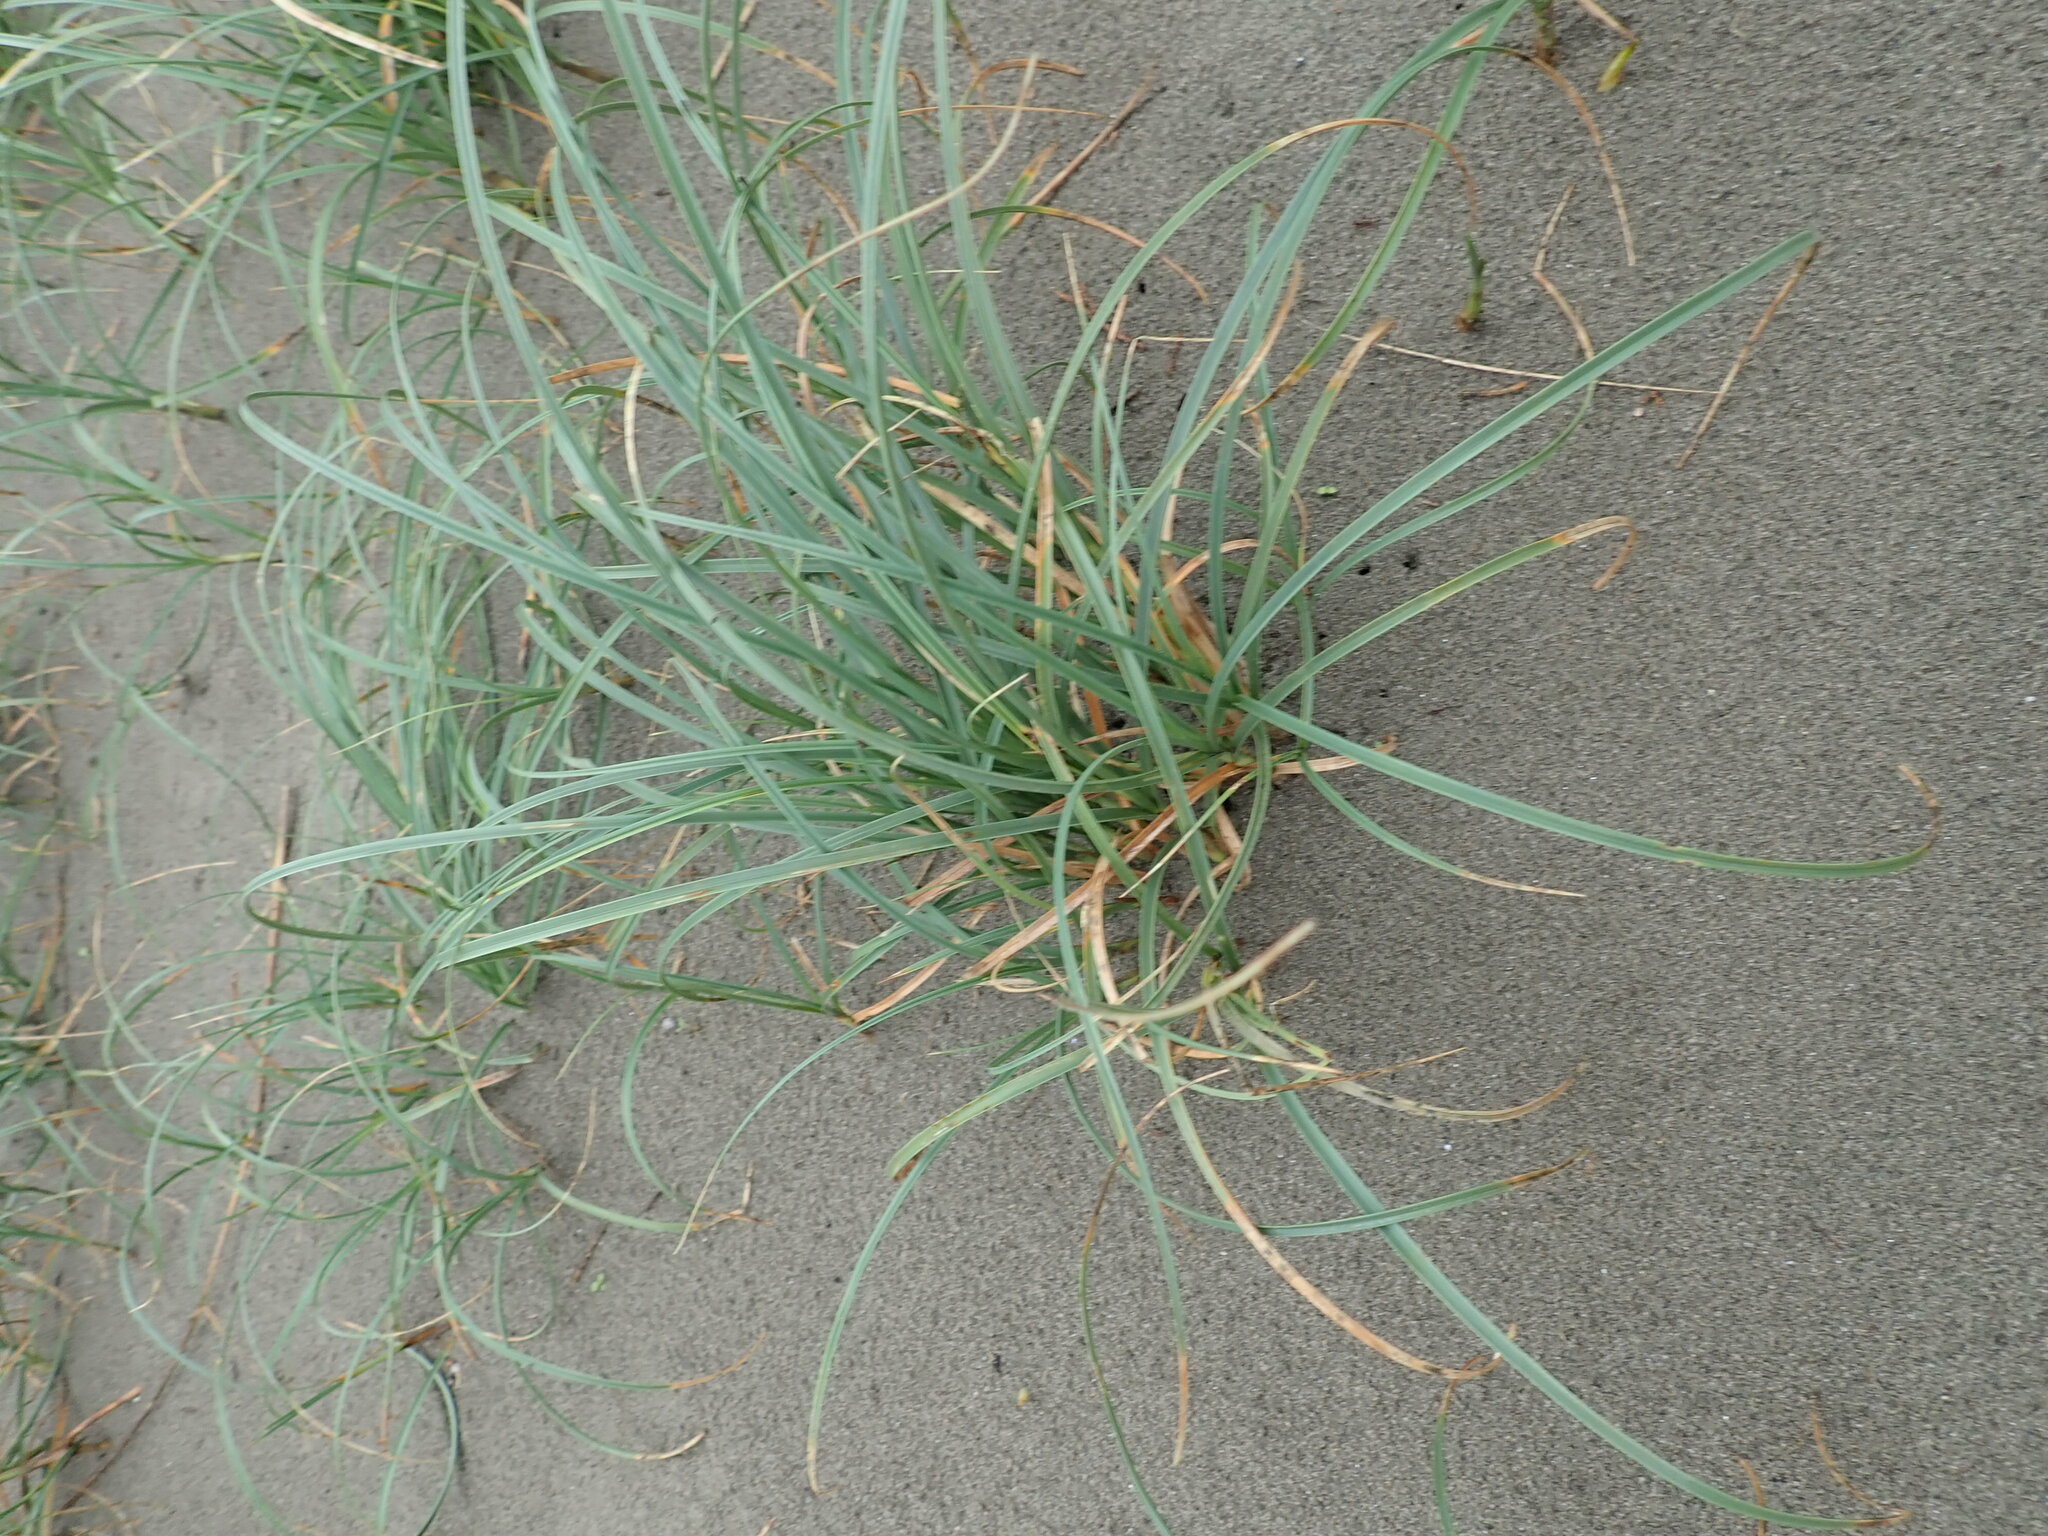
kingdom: Plantae
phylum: Tracheophyta
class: Liliopsida
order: Poales
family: Cyperaceae
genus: Carex
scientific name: Carex pumila
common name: Dwarf sedge
